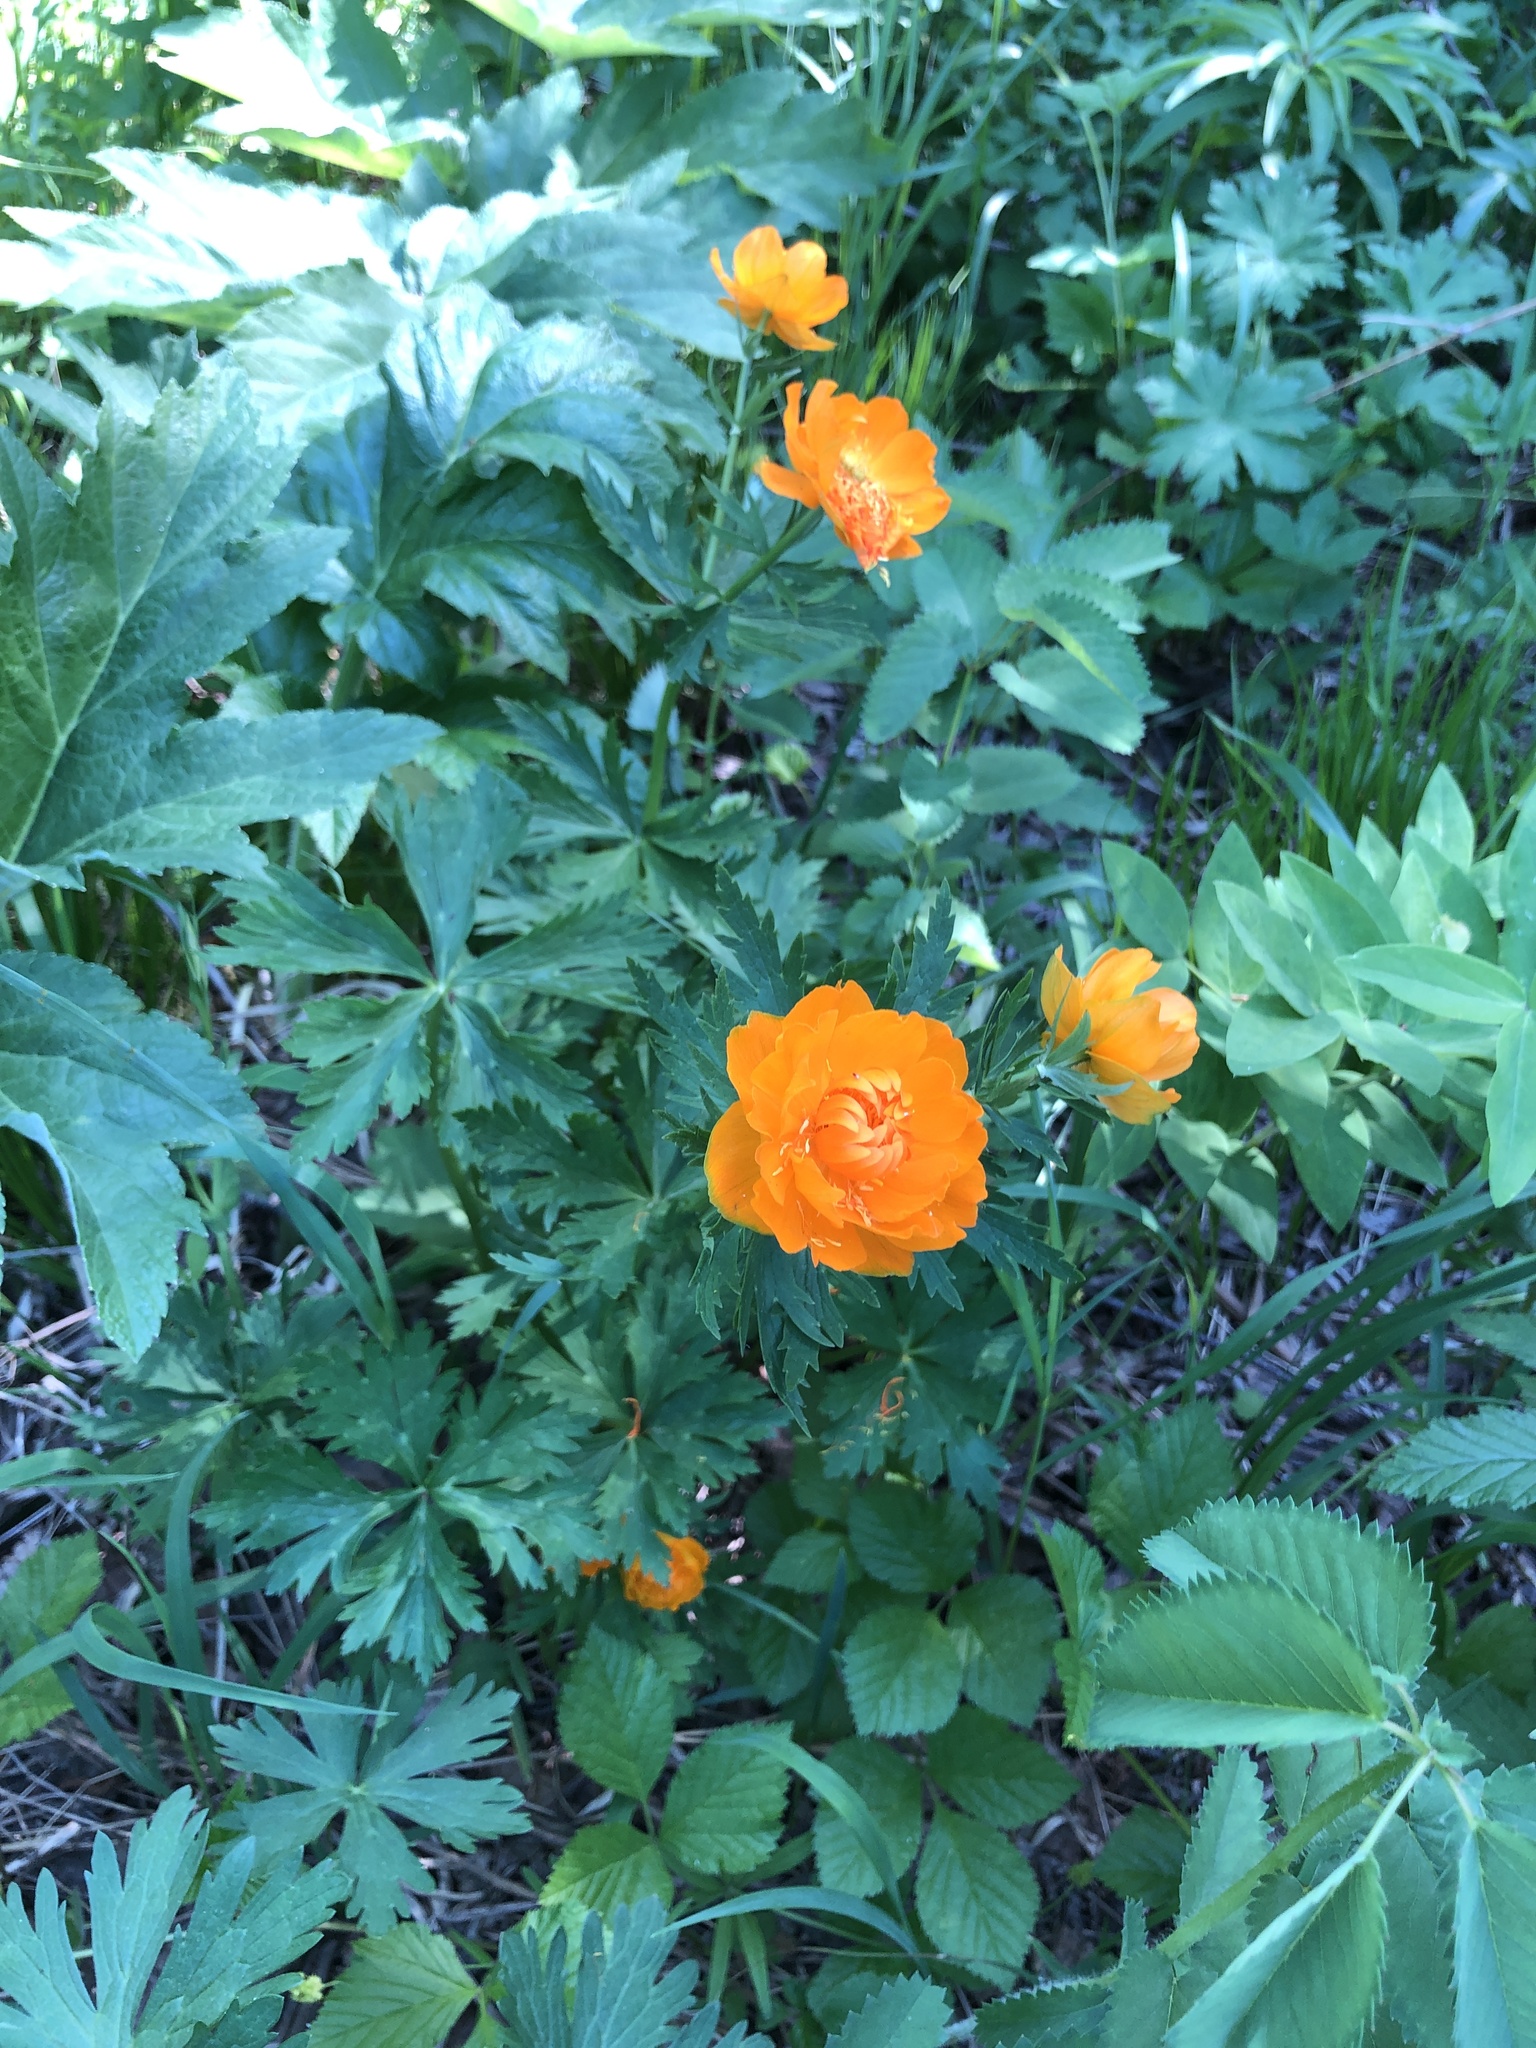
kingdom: Plantae
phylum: Tracheophyta
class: Magnoliopsida
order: Ranunculales
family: Ranunculaceae
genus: Trollius
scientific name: Trollius asiaticus
